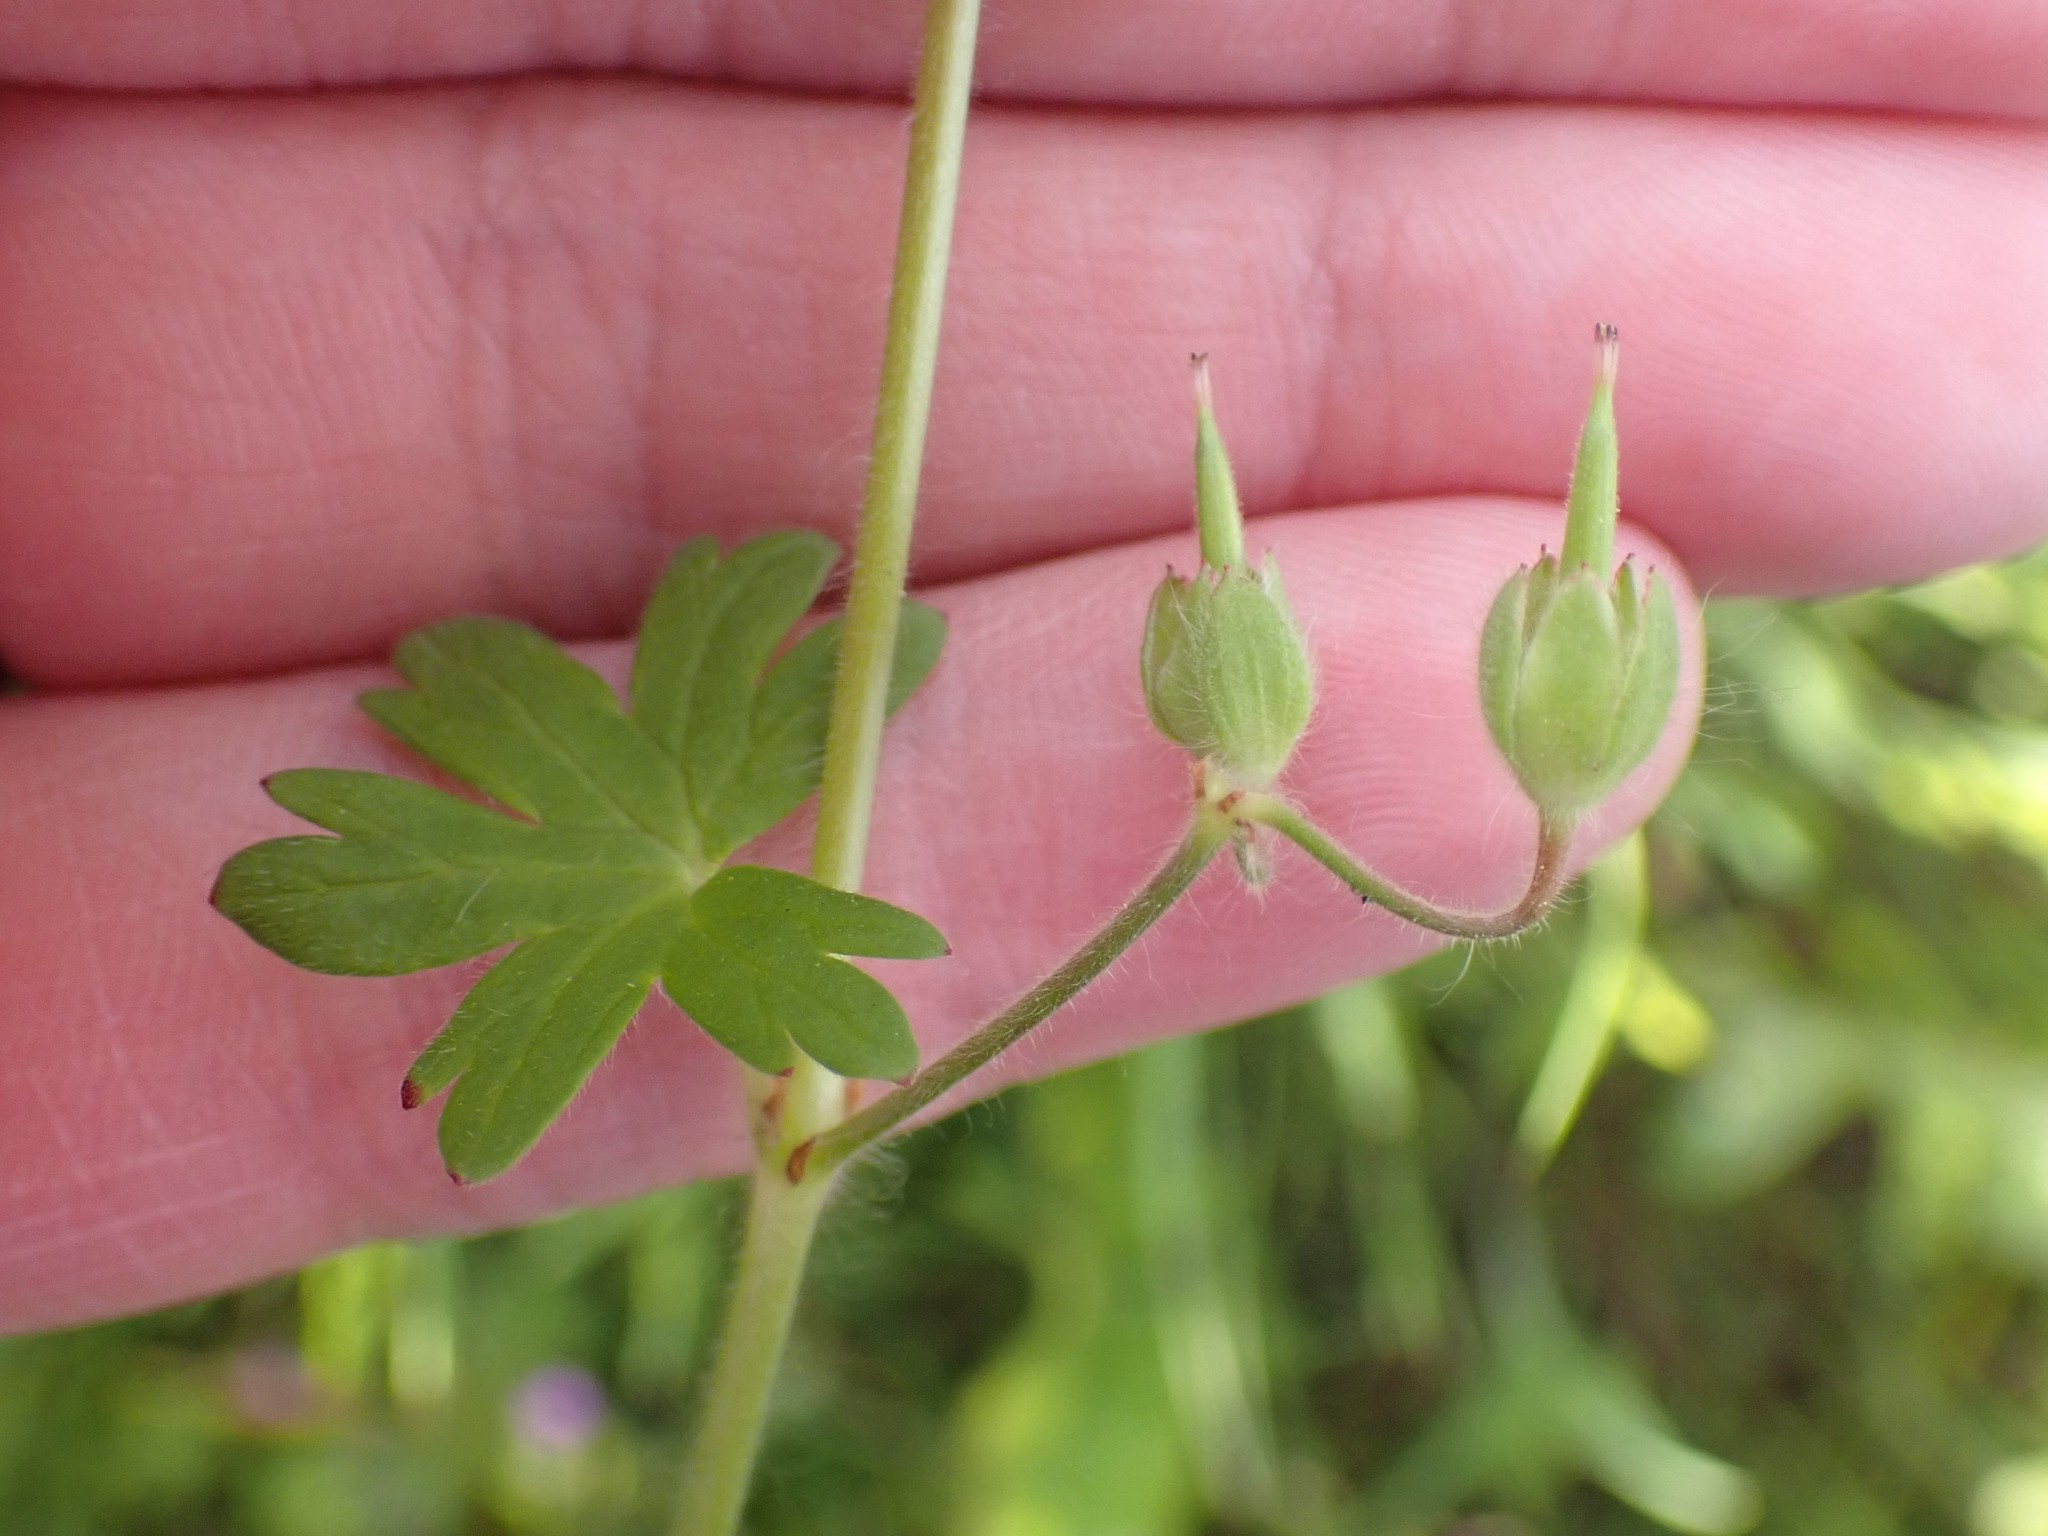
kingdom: Plantae
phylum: Tracheophyta
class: Magnoliopsida
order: Geraniales
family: Geraniaceae
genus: Geranium
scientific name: Geranium molle
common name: Dove's-foot crane's-bill
